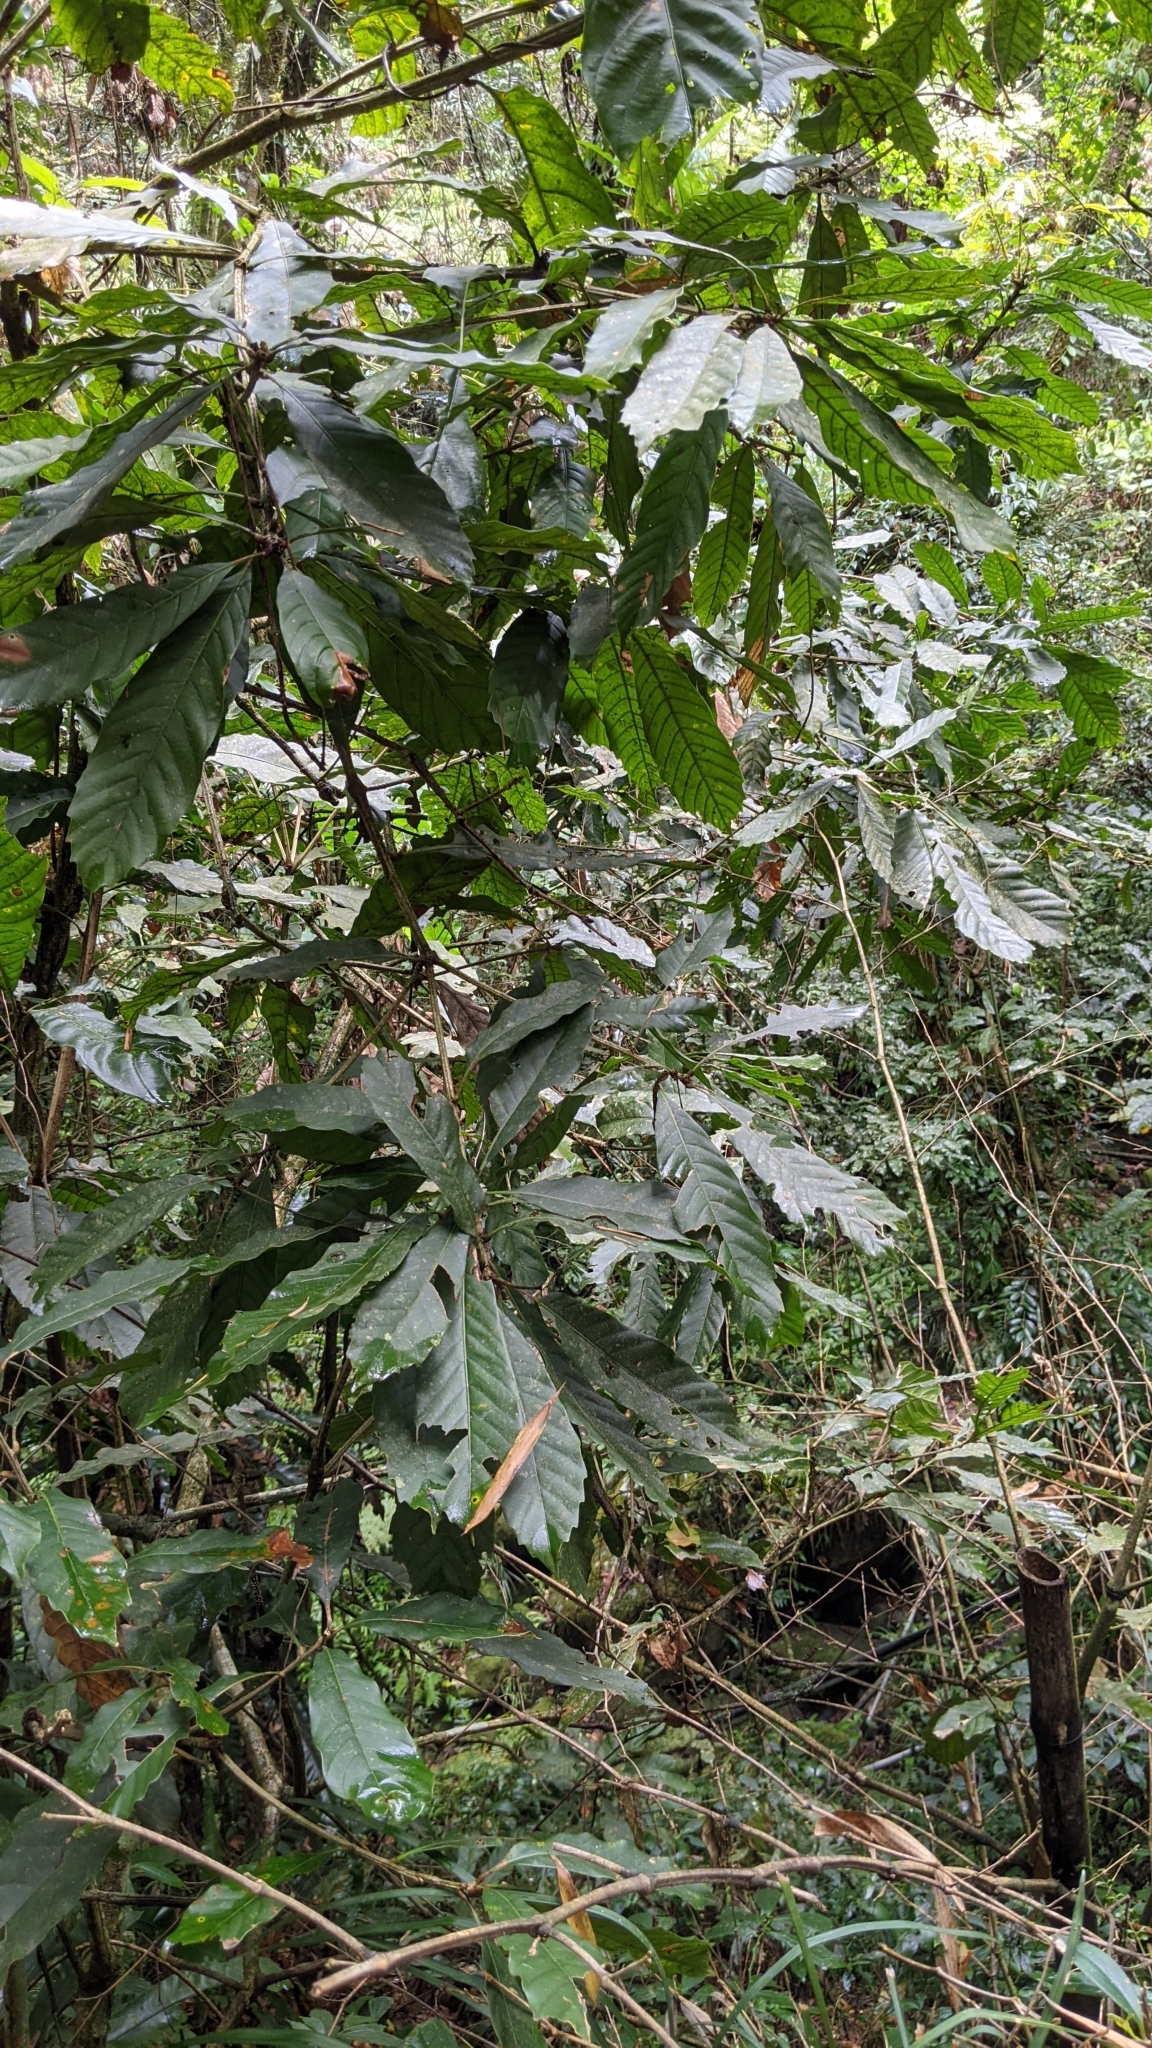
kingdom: Plantae
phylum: Tracheophyta
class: Magnoliopsida
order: Fagales
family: Fagaceae
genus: Lithocarpus
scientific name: Lithocarpus kawakamii
